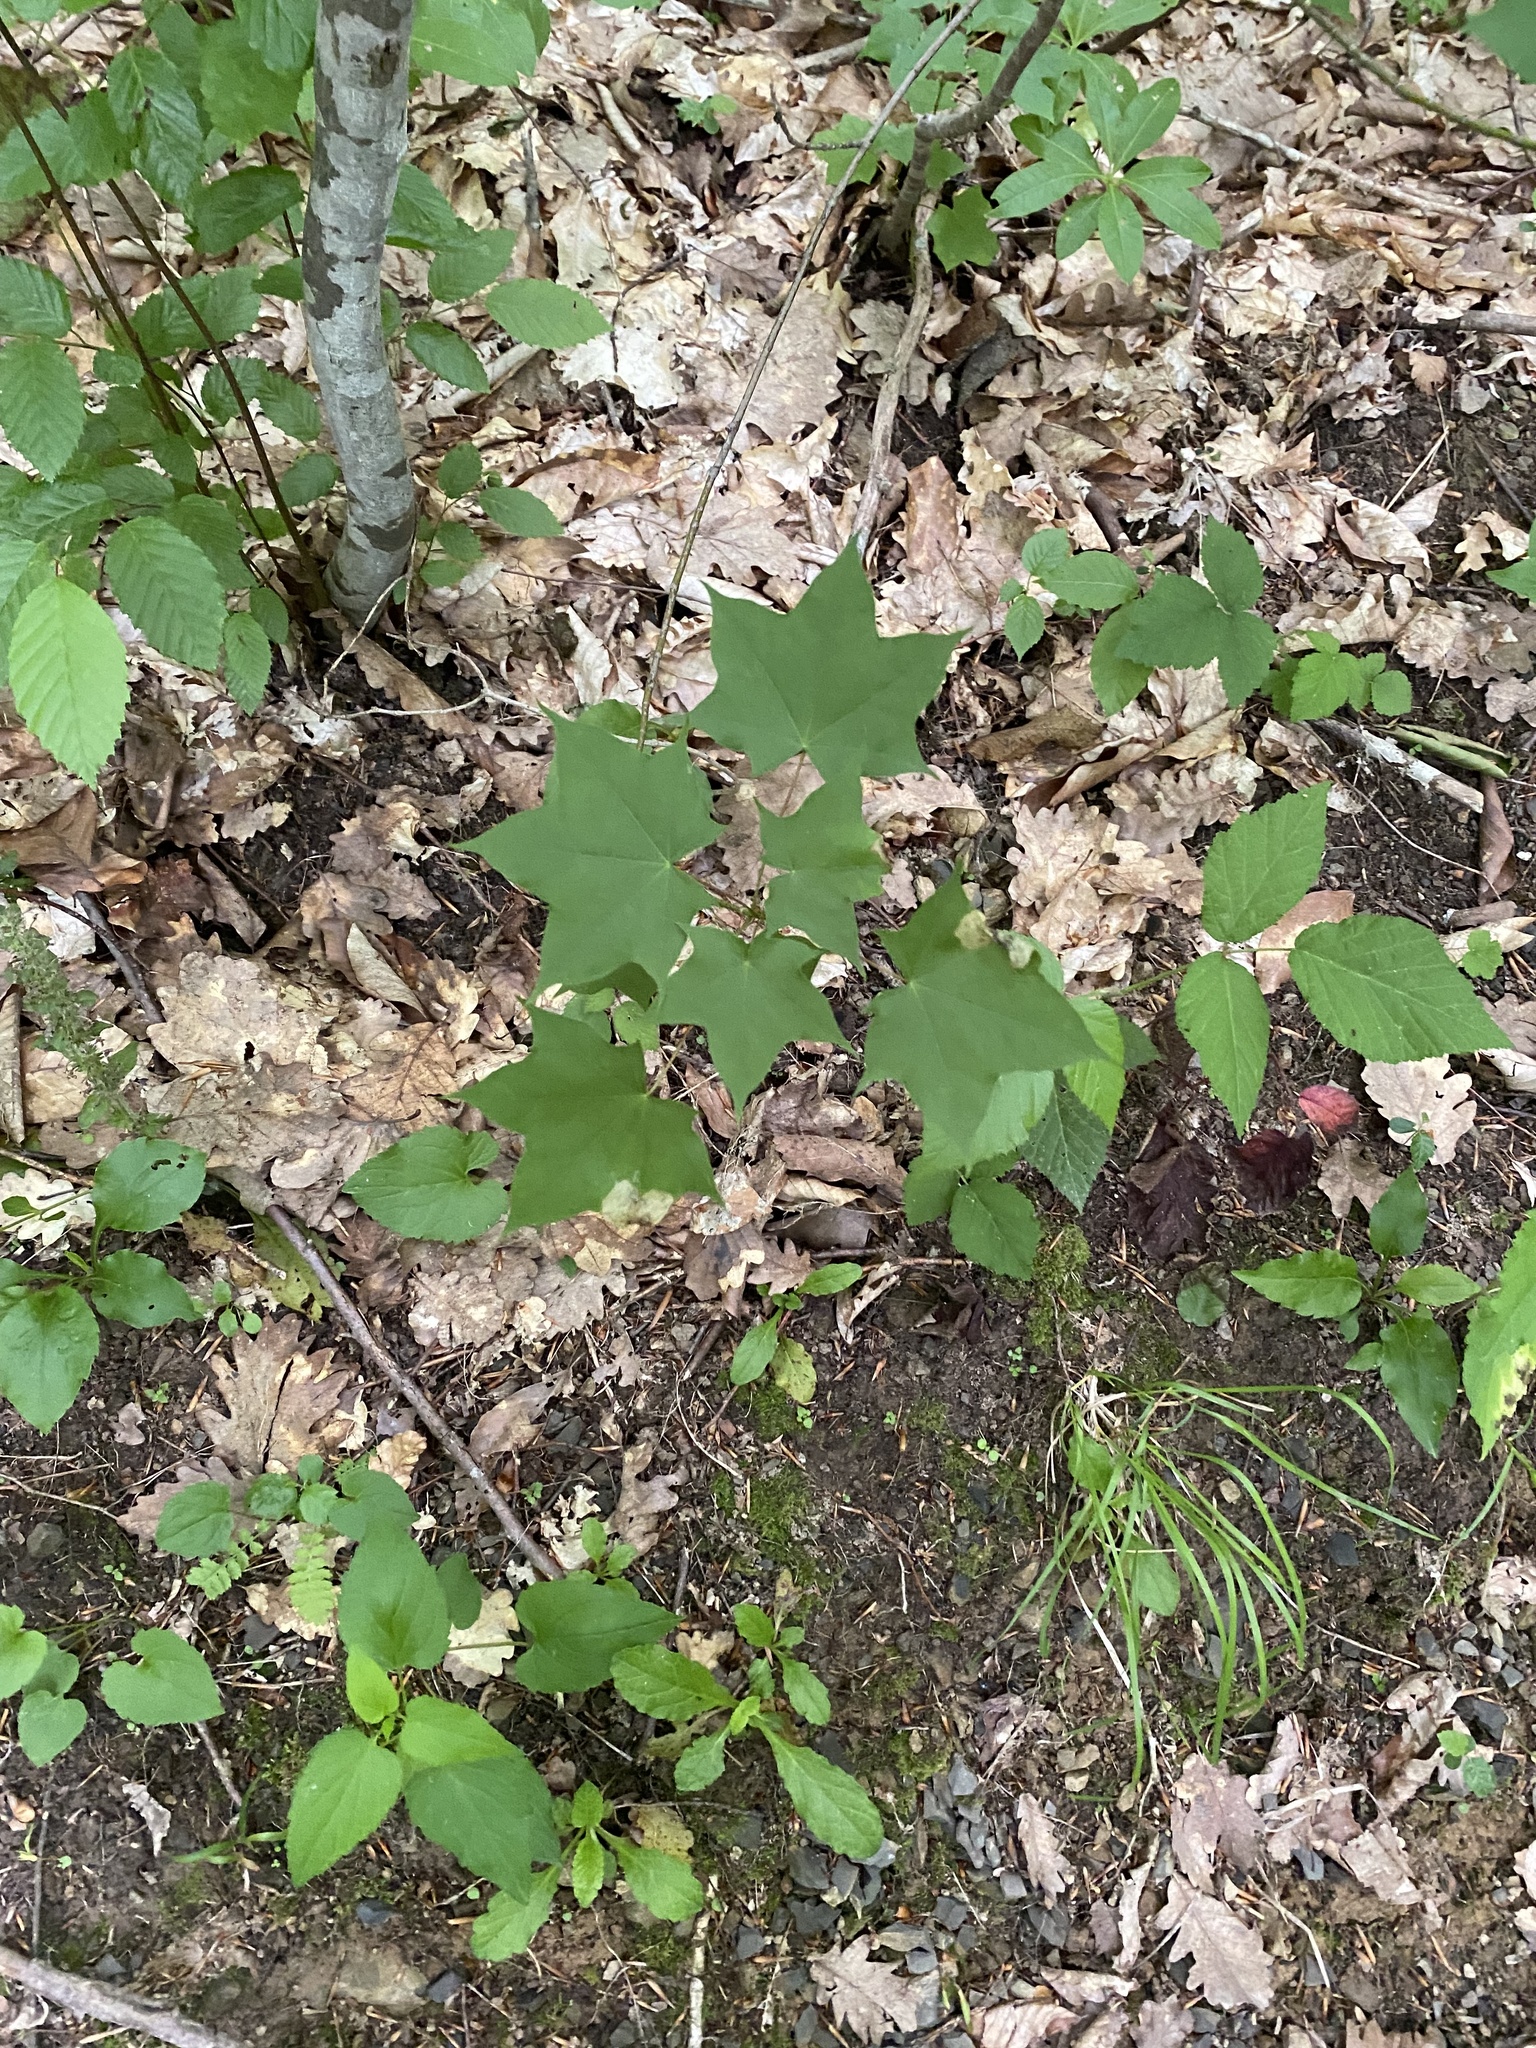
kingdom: Plantae
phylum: Tracheophyta
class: Magnoliopsida
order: Sapindales
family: Sapindaceae
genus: Acer
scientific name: Acer platanoides
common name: Norway maple
